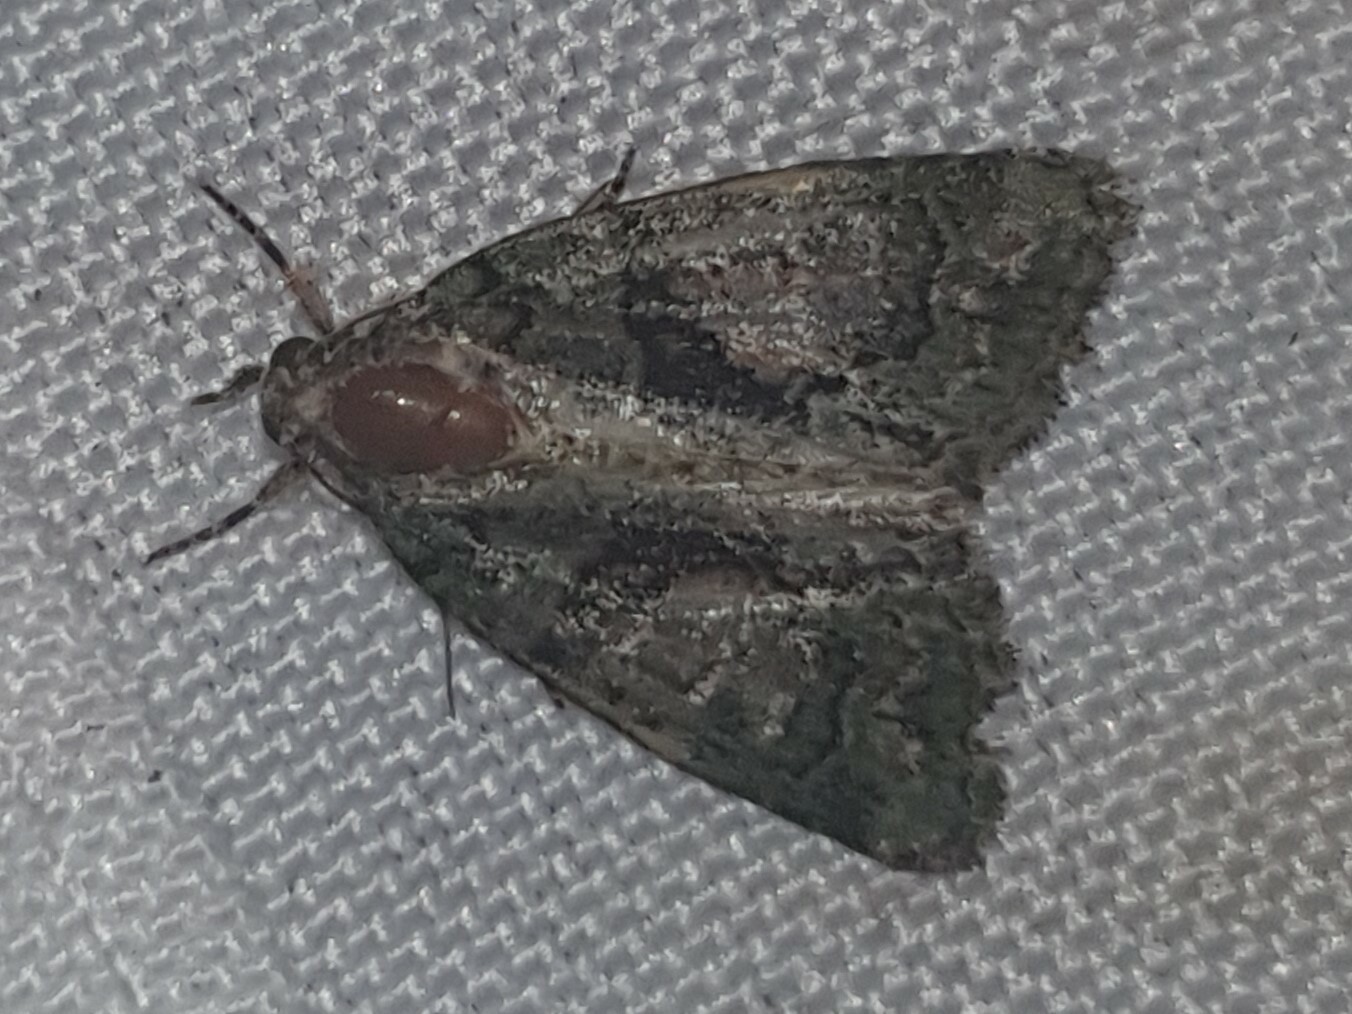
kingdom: Animalia
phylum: Arthropoda
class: Insecta
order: Lepidoptera
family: Noctuidae
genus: Cryphia
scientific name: Cryphia algae
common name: Tree-lichen beauty
